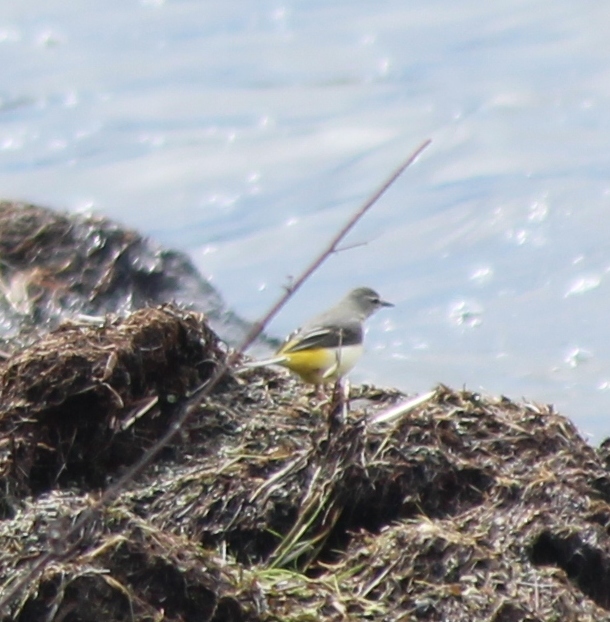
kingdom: Animalia
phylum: Chordata
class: Aves
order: Passeriformes
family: Motacillidae
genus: Motacilla
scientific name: Motacilla cinerea
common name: Grey wagtail
